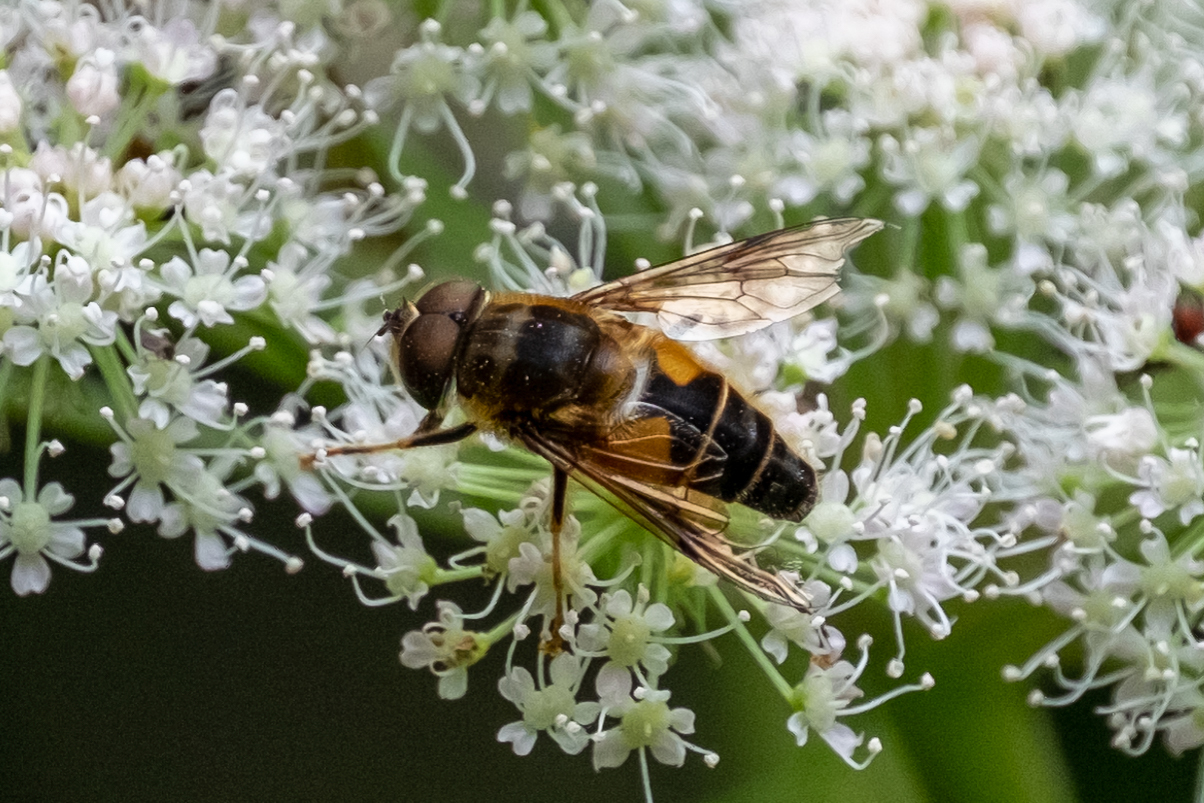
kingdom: Animalia
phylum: Arthropoda
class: Insecta
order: Diptera
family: Syrphidae
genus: Eristalis
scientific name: Eristalis pertinax
